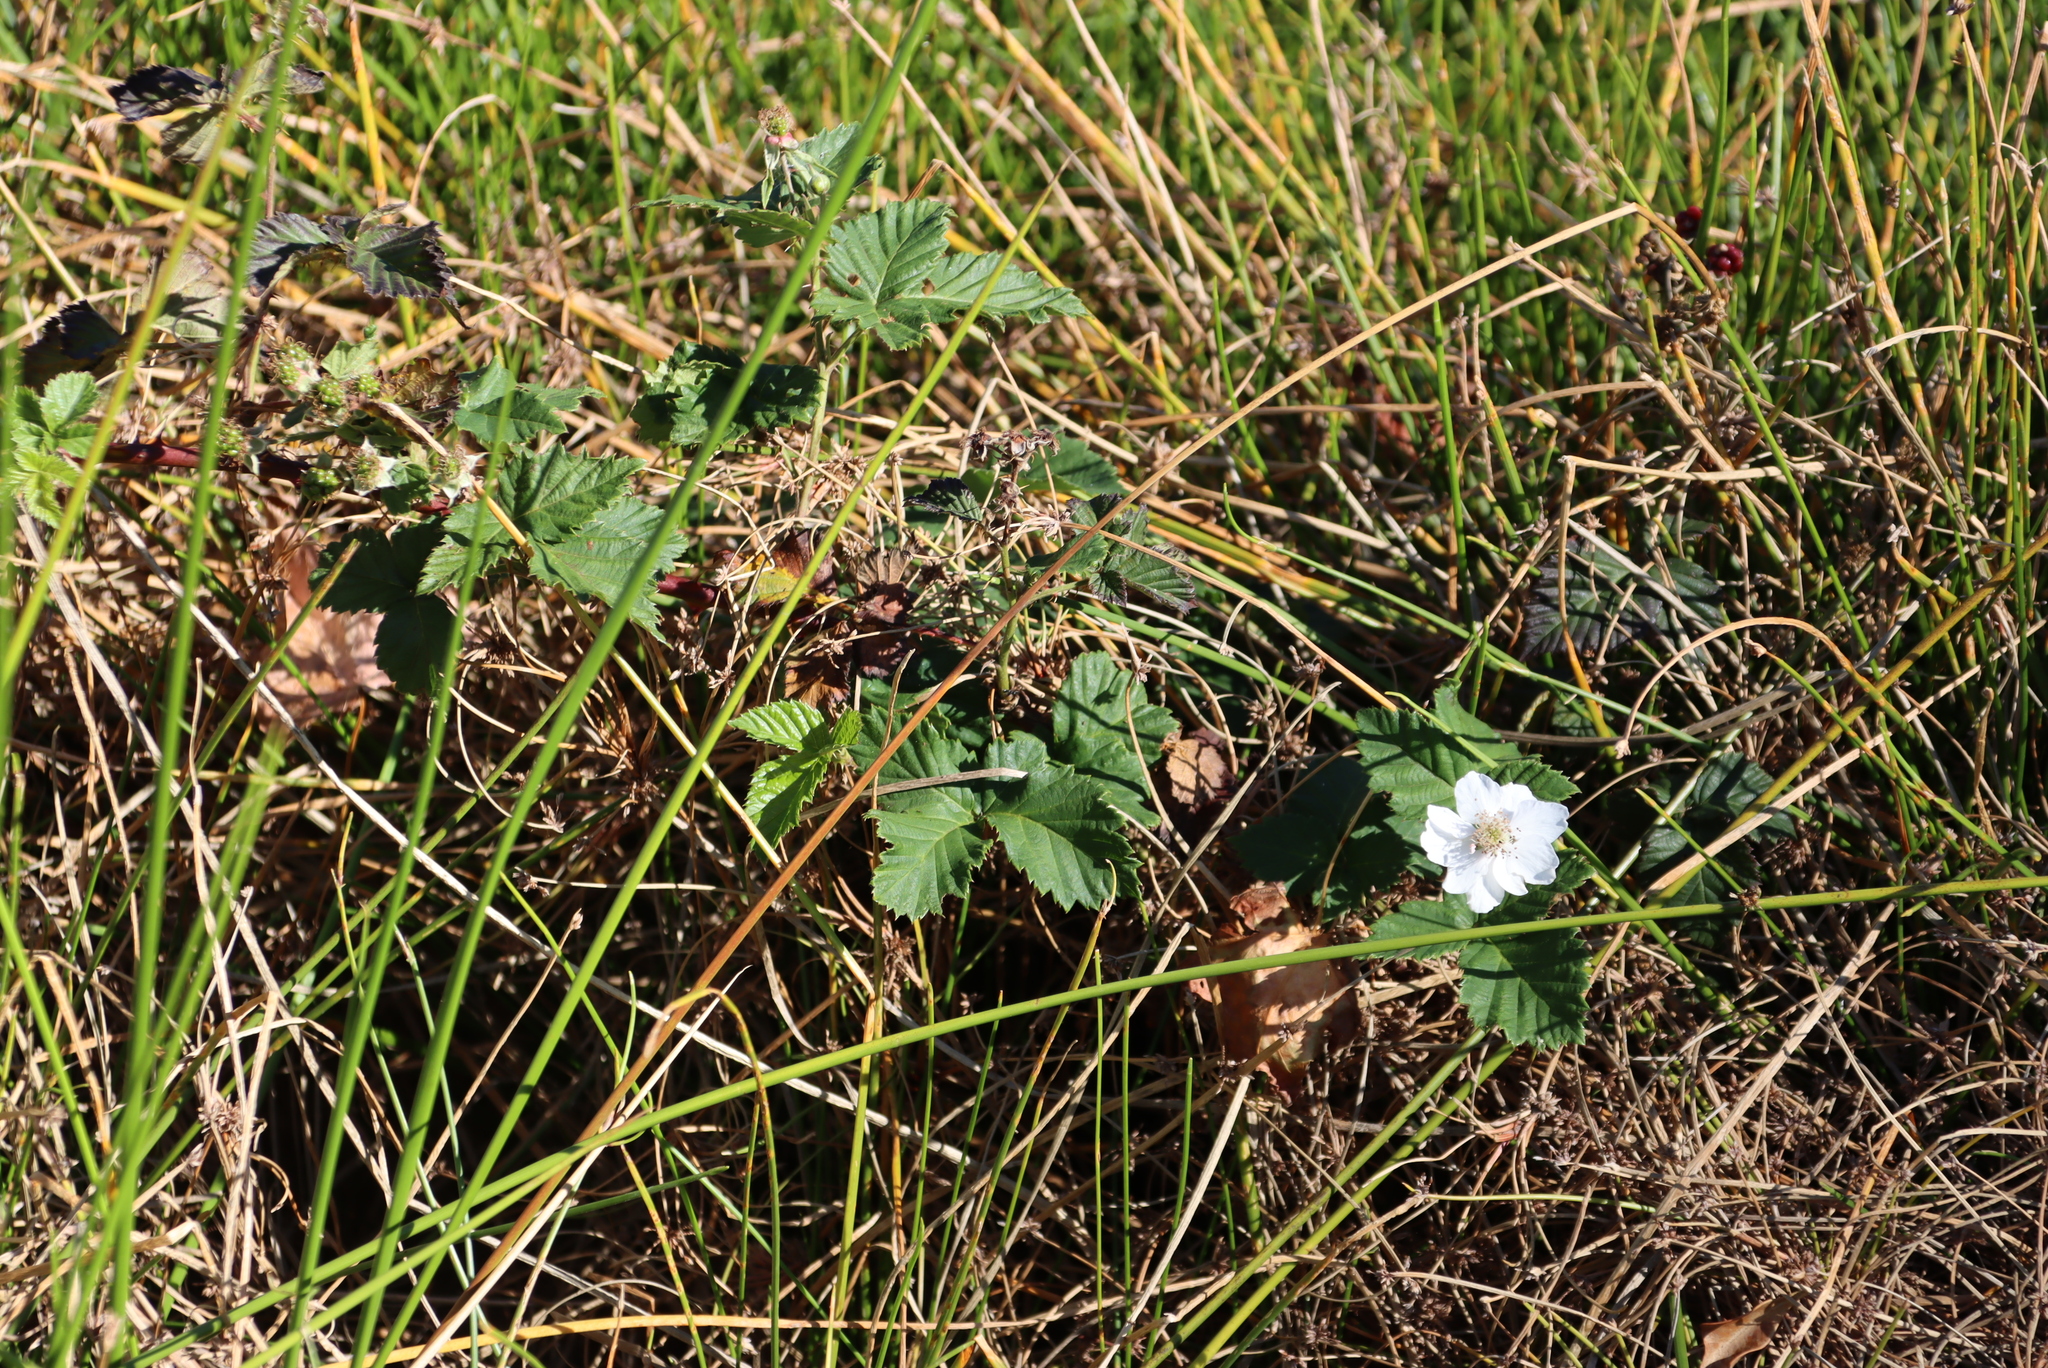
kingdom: Plantae
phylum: Tracheophyta
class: Magnoliopsida
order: Rosales
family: Rosaceae
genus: Rubus
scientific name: Rubus affinis
